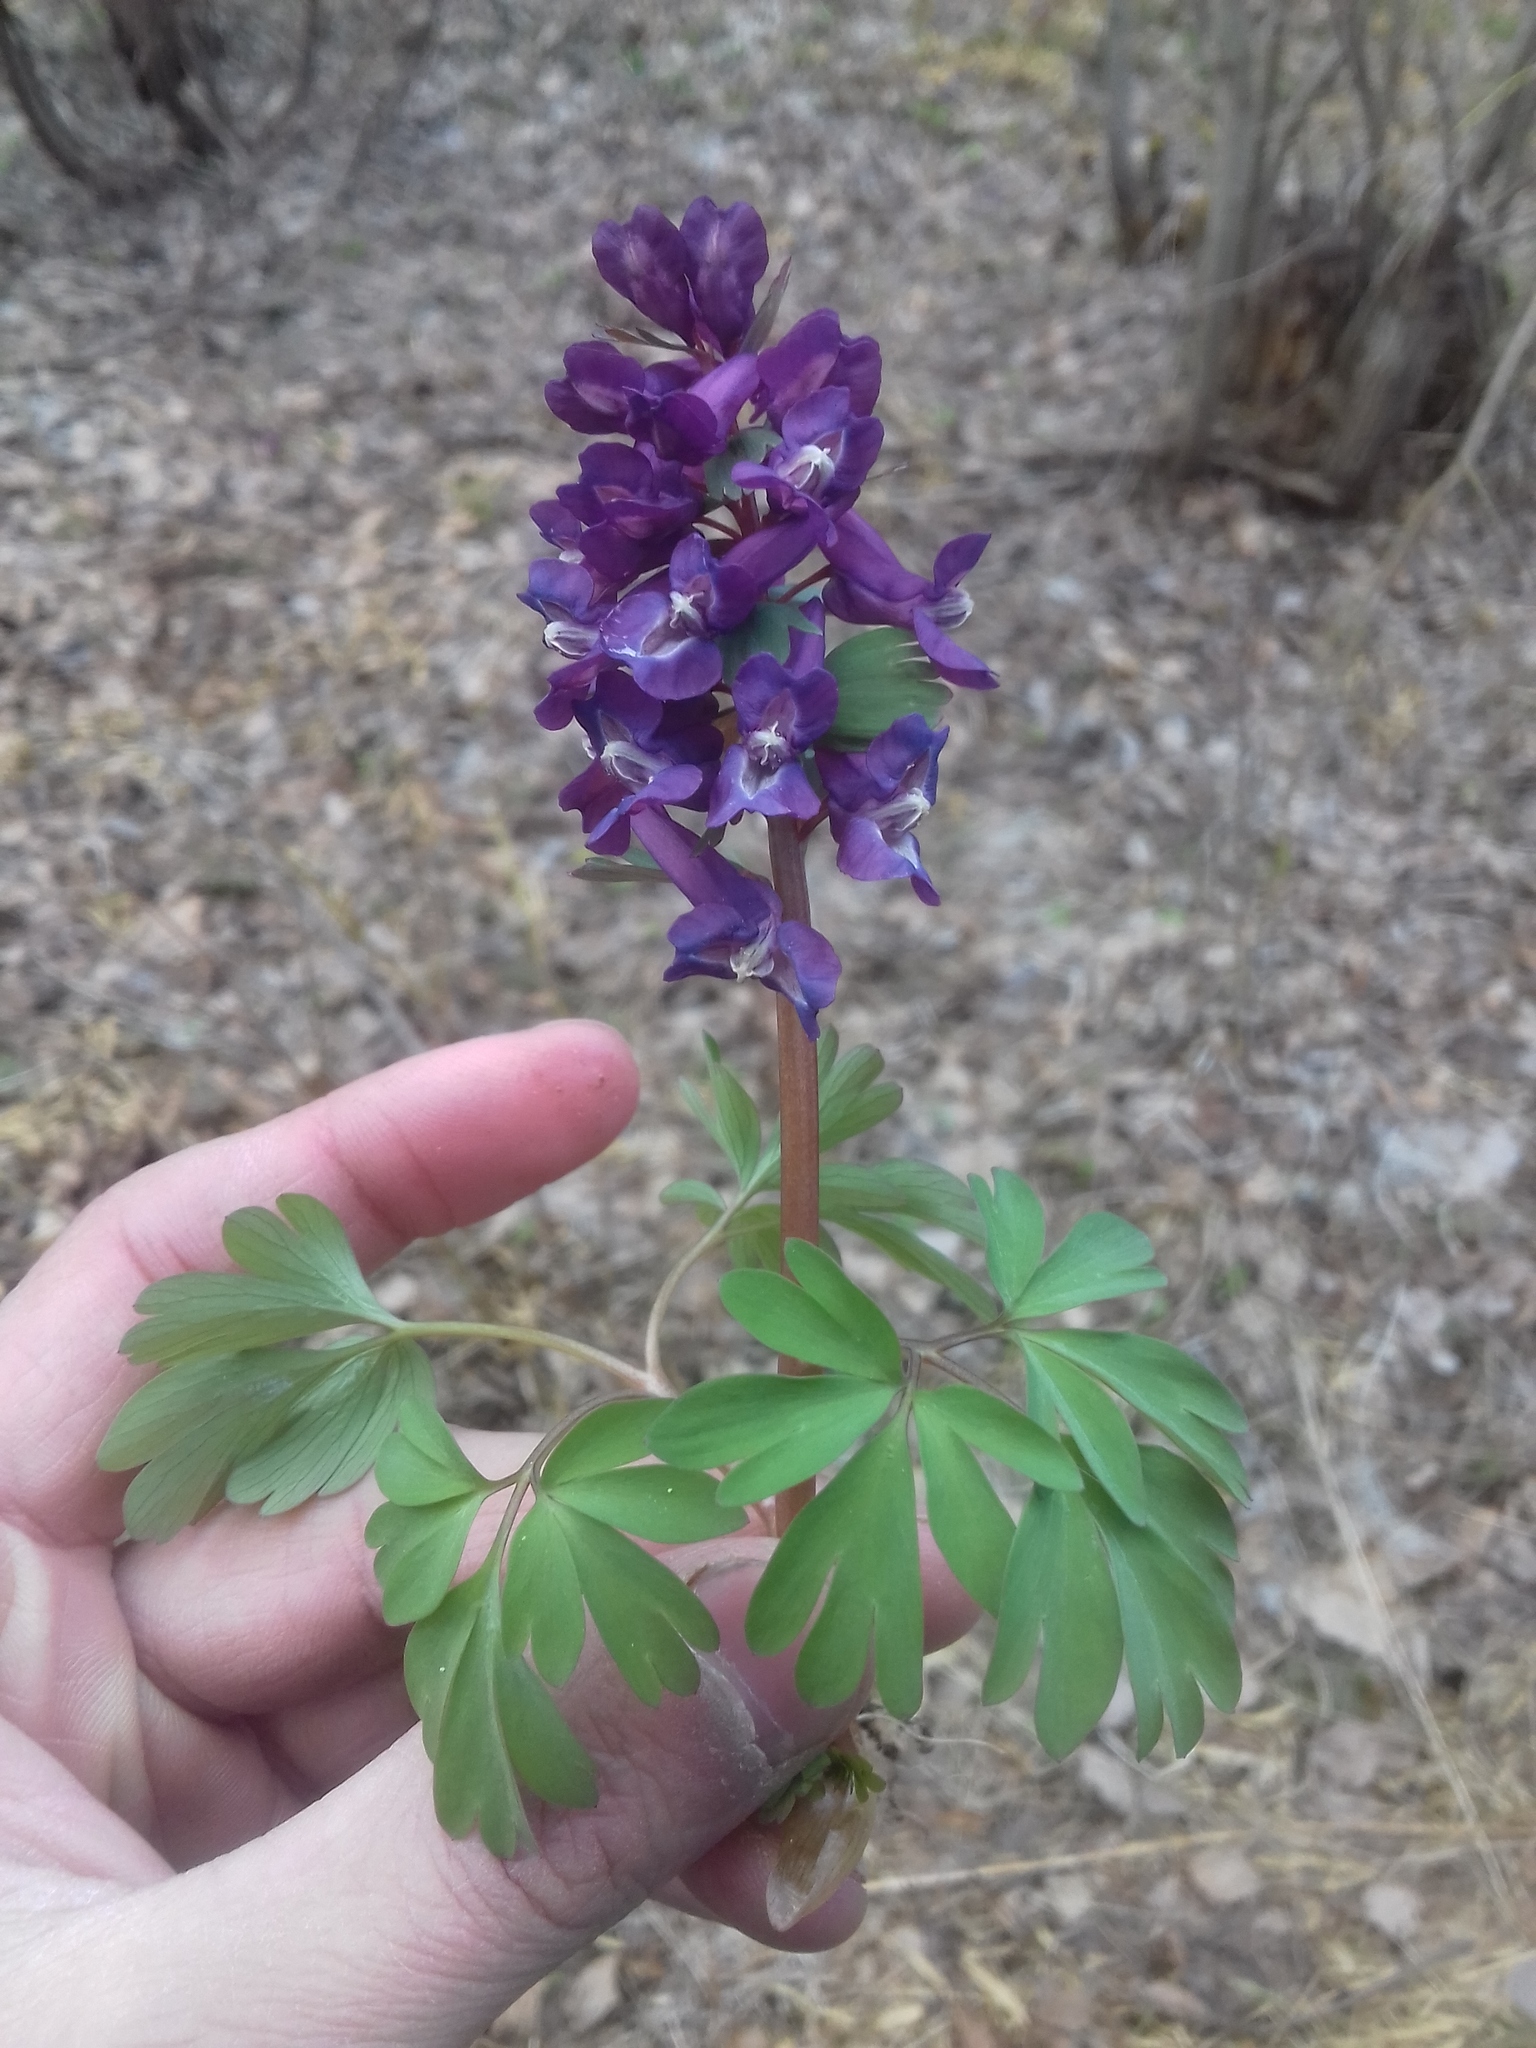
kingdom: Plantae
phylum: Tracheophyta
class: Magnoliopsida
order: Ranunculales
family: Papaveraceae
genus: Corydalis
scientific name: Corydalis solida
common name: Bird-in-a-bush
